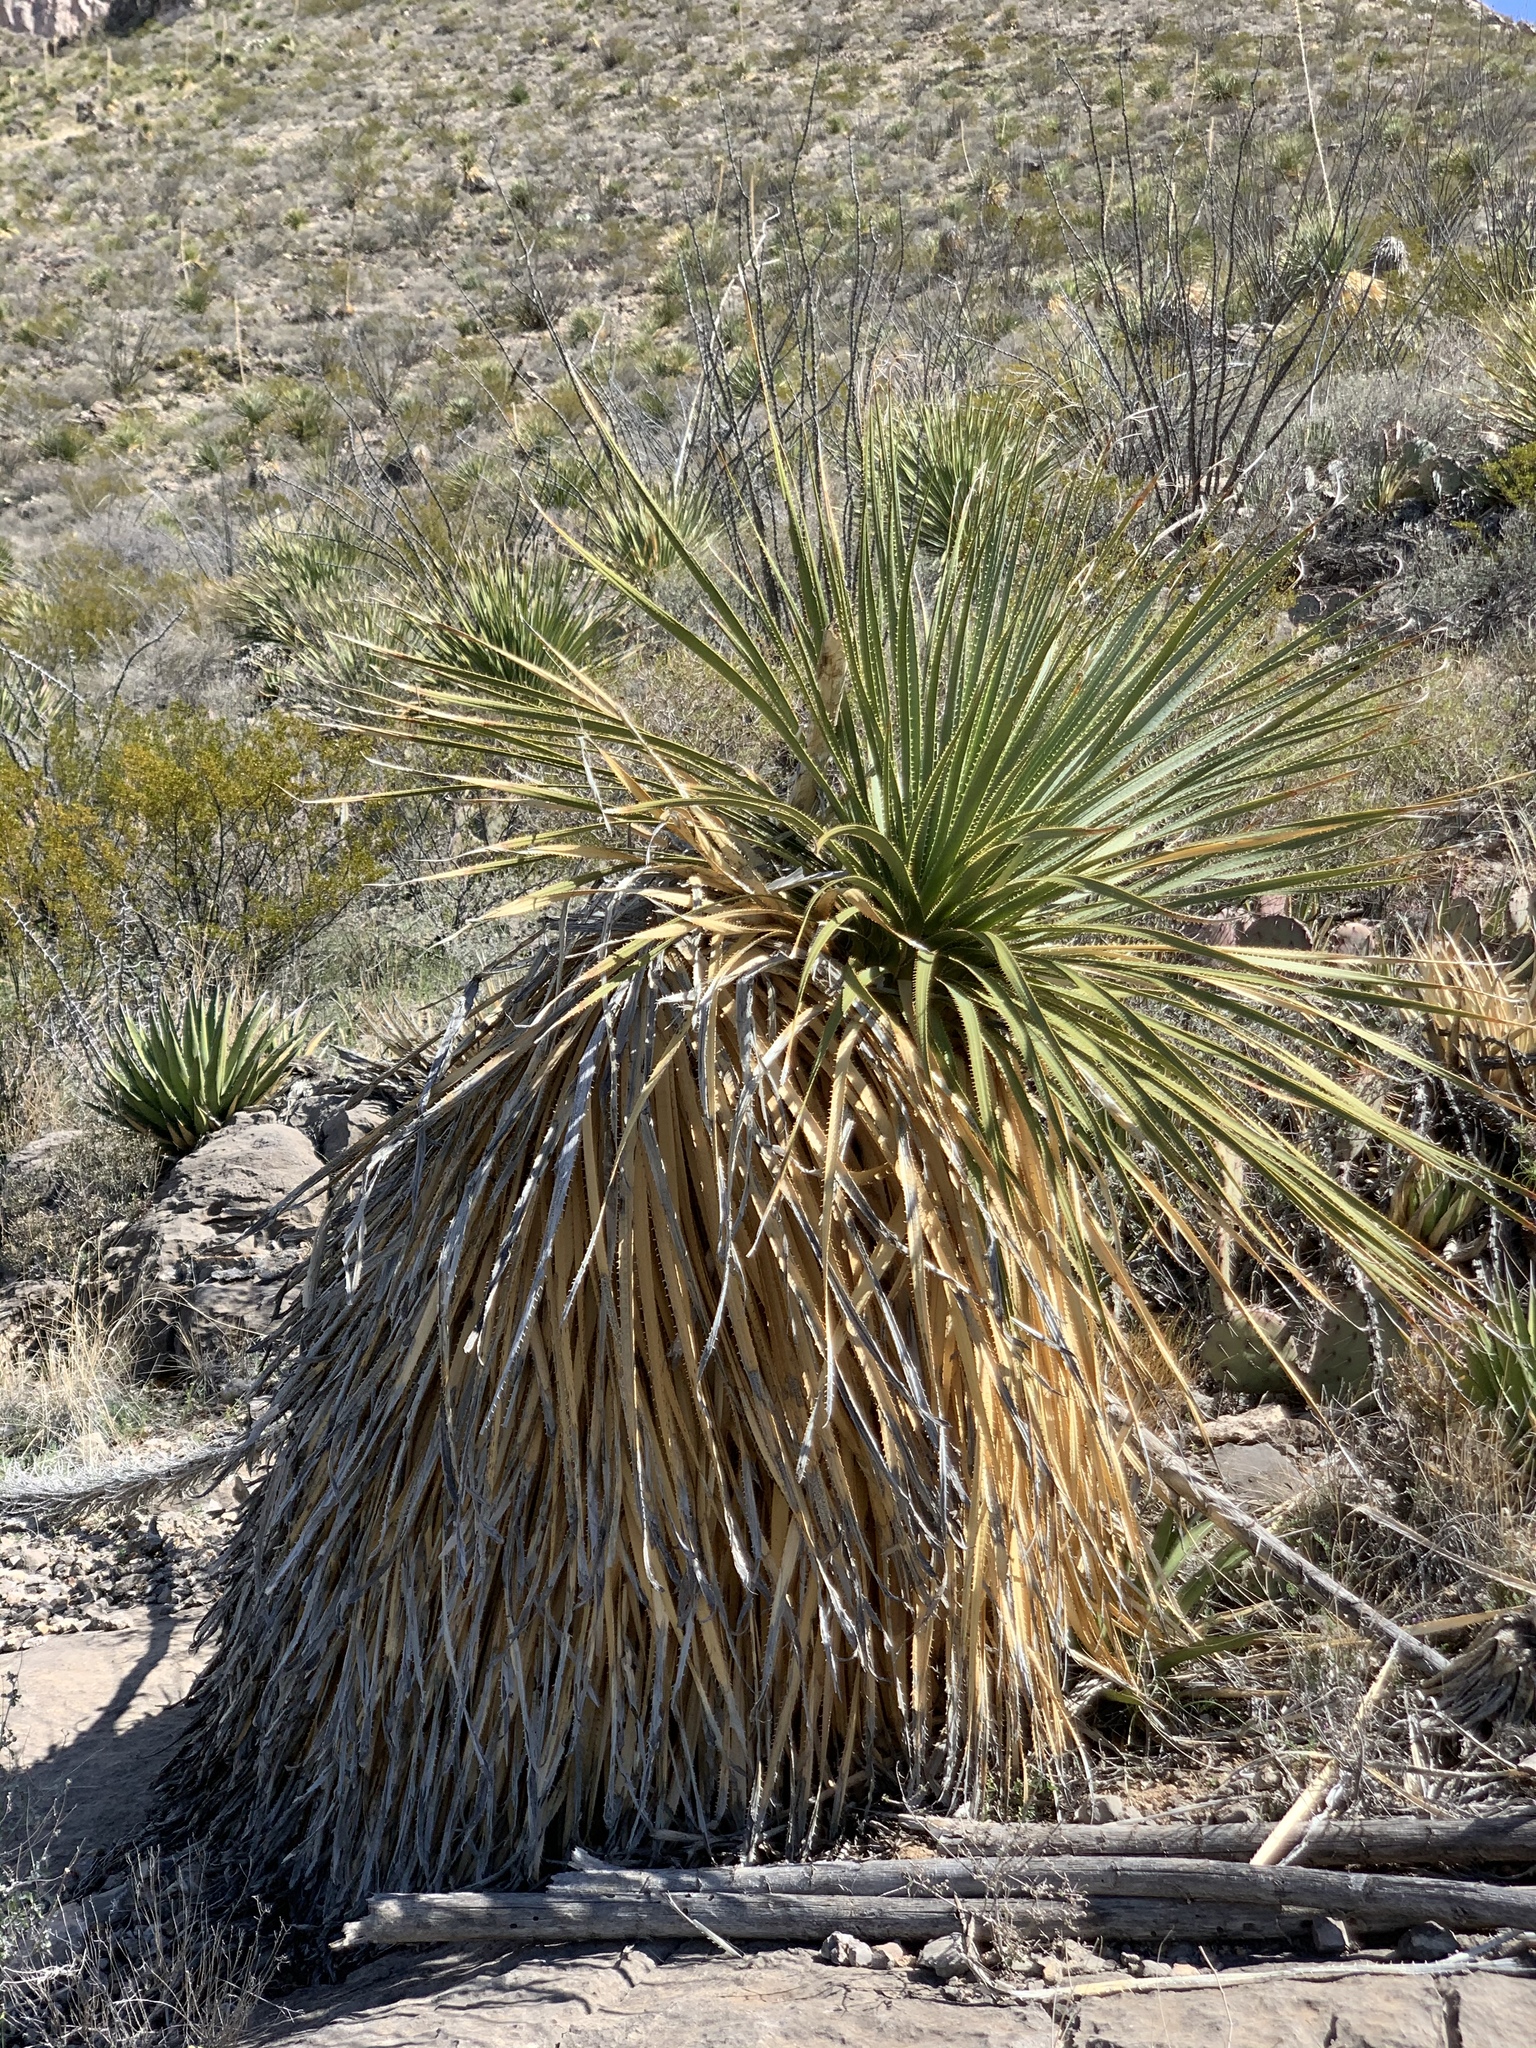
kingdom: Plantae
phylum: Tracheophyta
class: Liliopsida
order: Asparagales
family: Asparagaceae
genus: Dasylirion
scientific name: Dasylirion wheeleri
